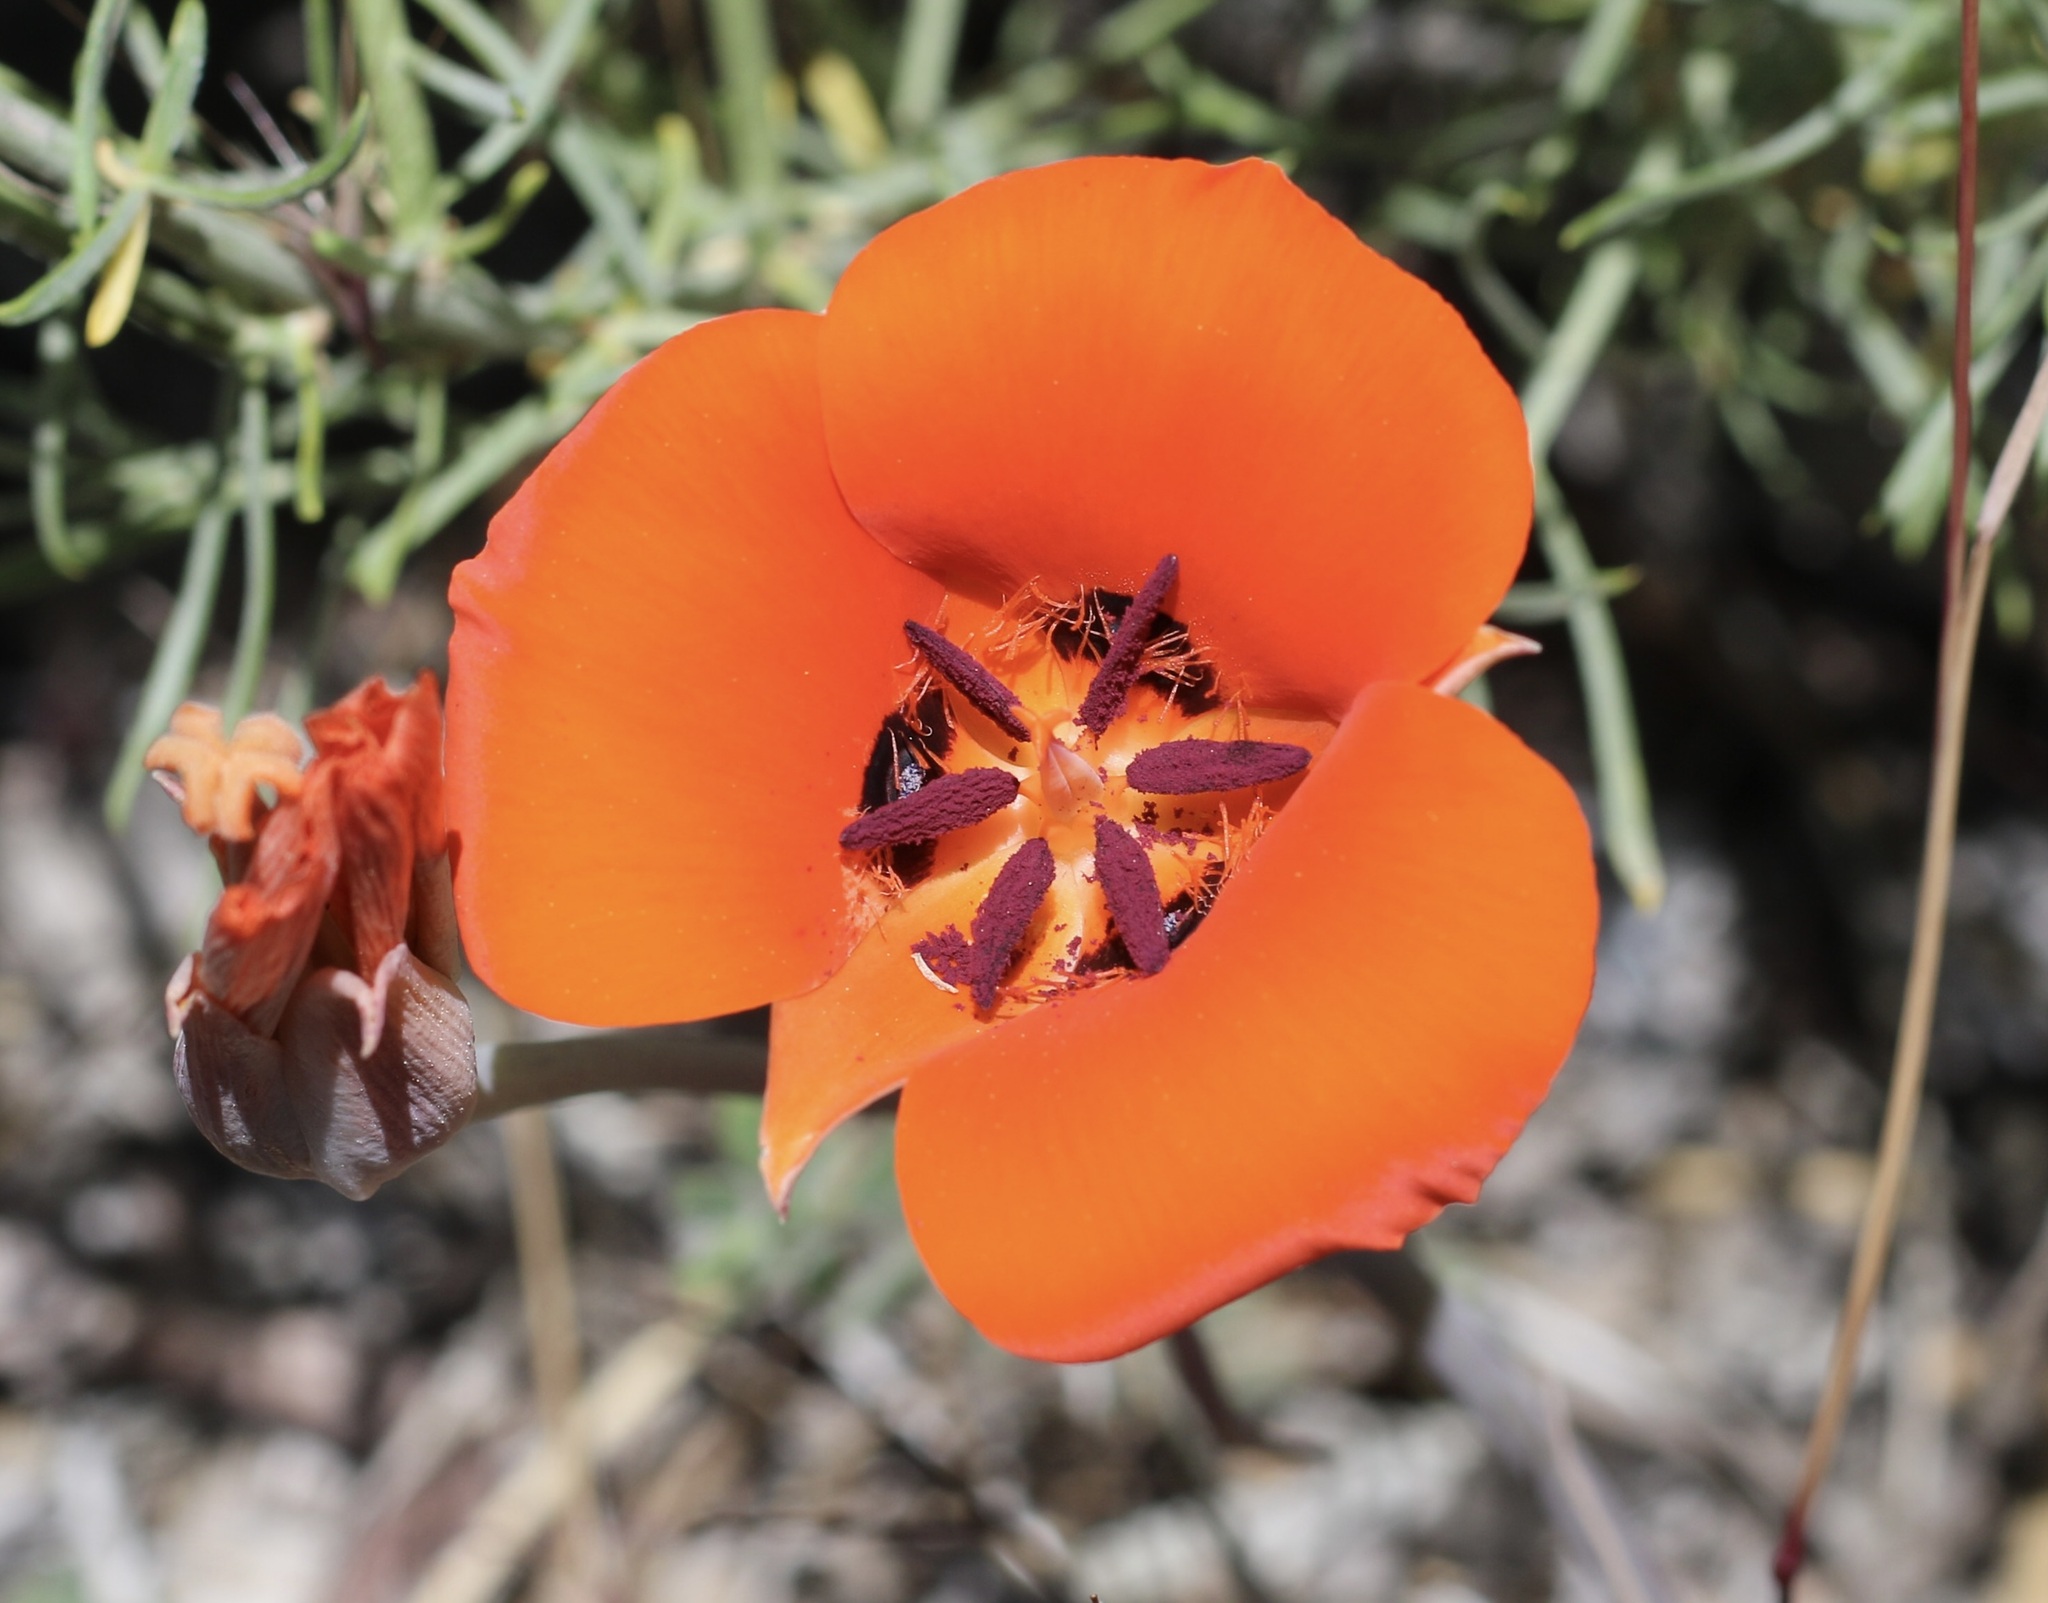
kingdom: Plantae
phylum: Tracheophyta
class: Liliopsida
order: Liliales
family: Liliaceae
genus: Calochortus
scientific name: Calochortus kennedyi
